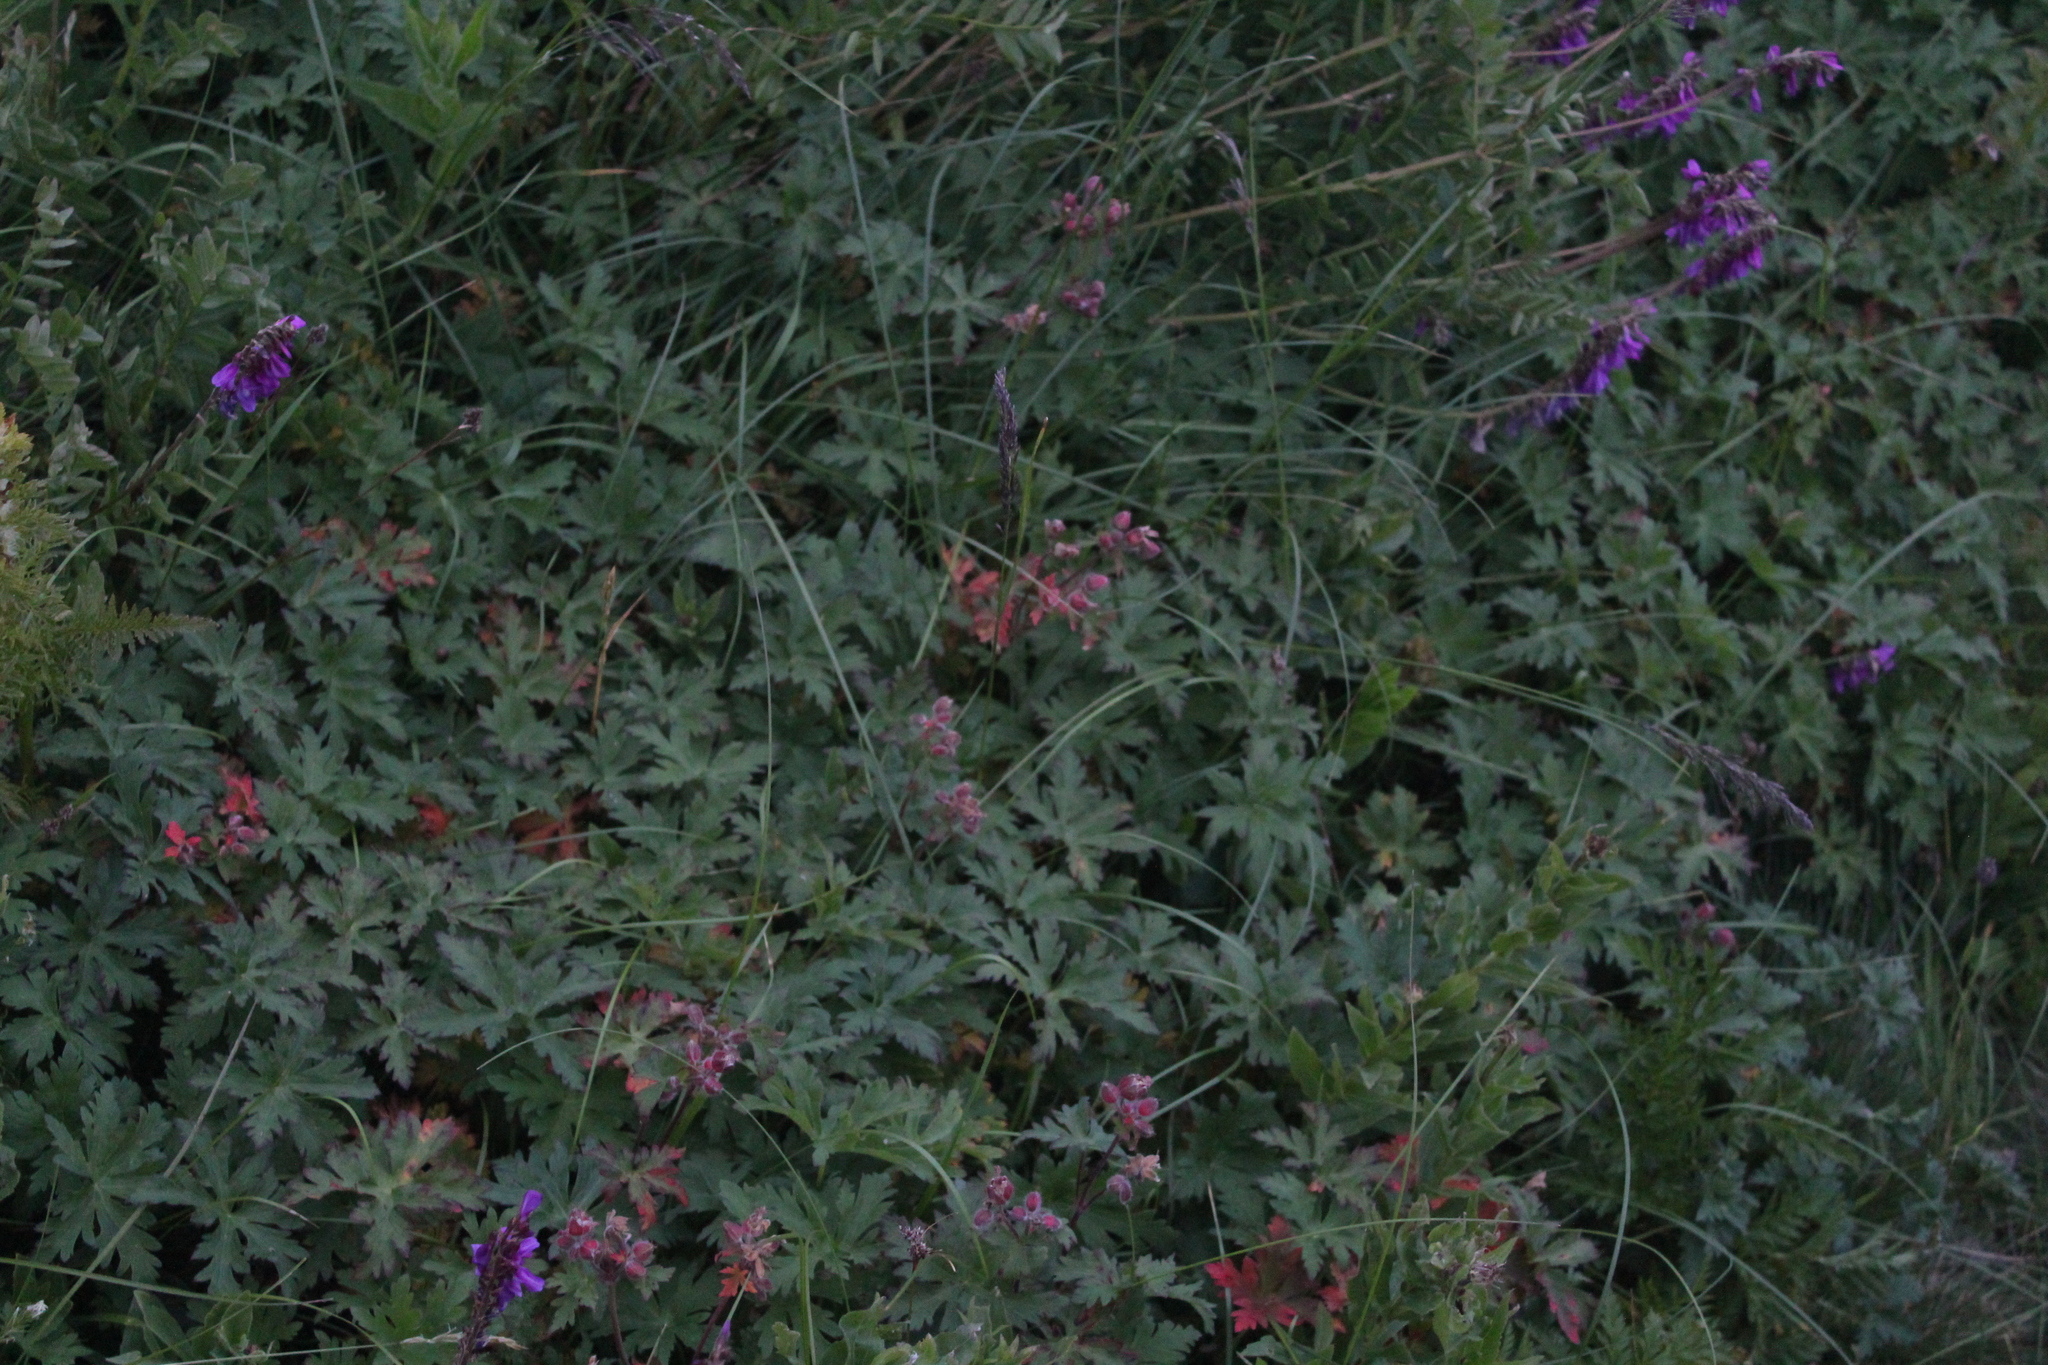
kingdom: Plantae
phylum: Tracheophyta
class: Magnoliopsida
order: Geraniales
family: Geraniaceae
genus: Geranium
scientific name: Geranium gymnocaulon
